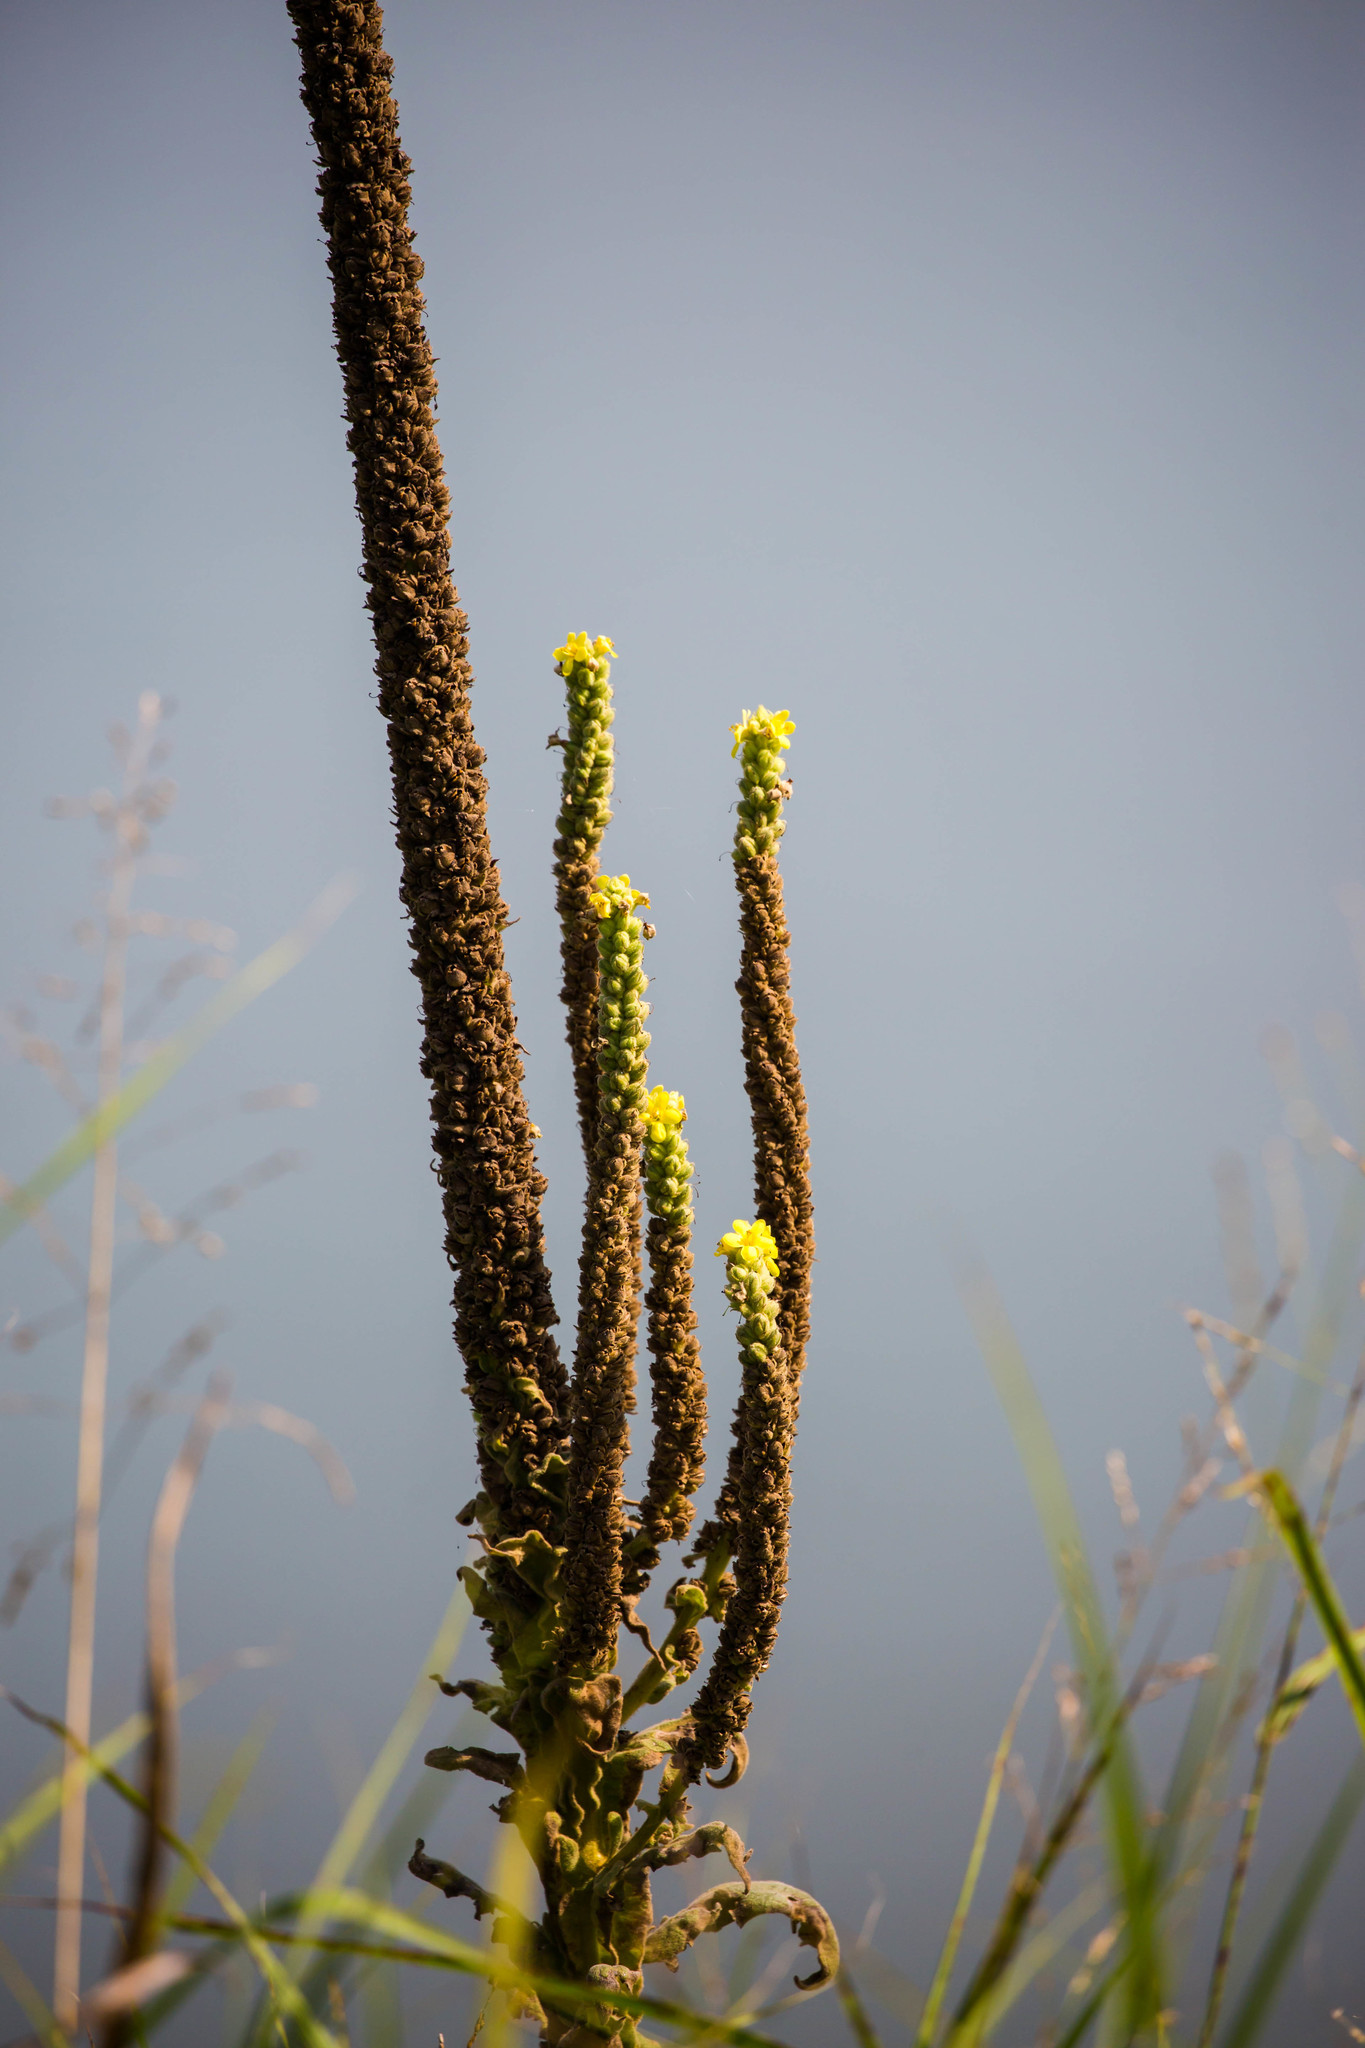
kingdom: Plantae
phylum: Tracheophyta
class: Magnoliopsida
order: Lamiales
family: Scrophulariaceae
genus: Verbascum
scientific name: Verbascum thapsus
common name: Common mullein
